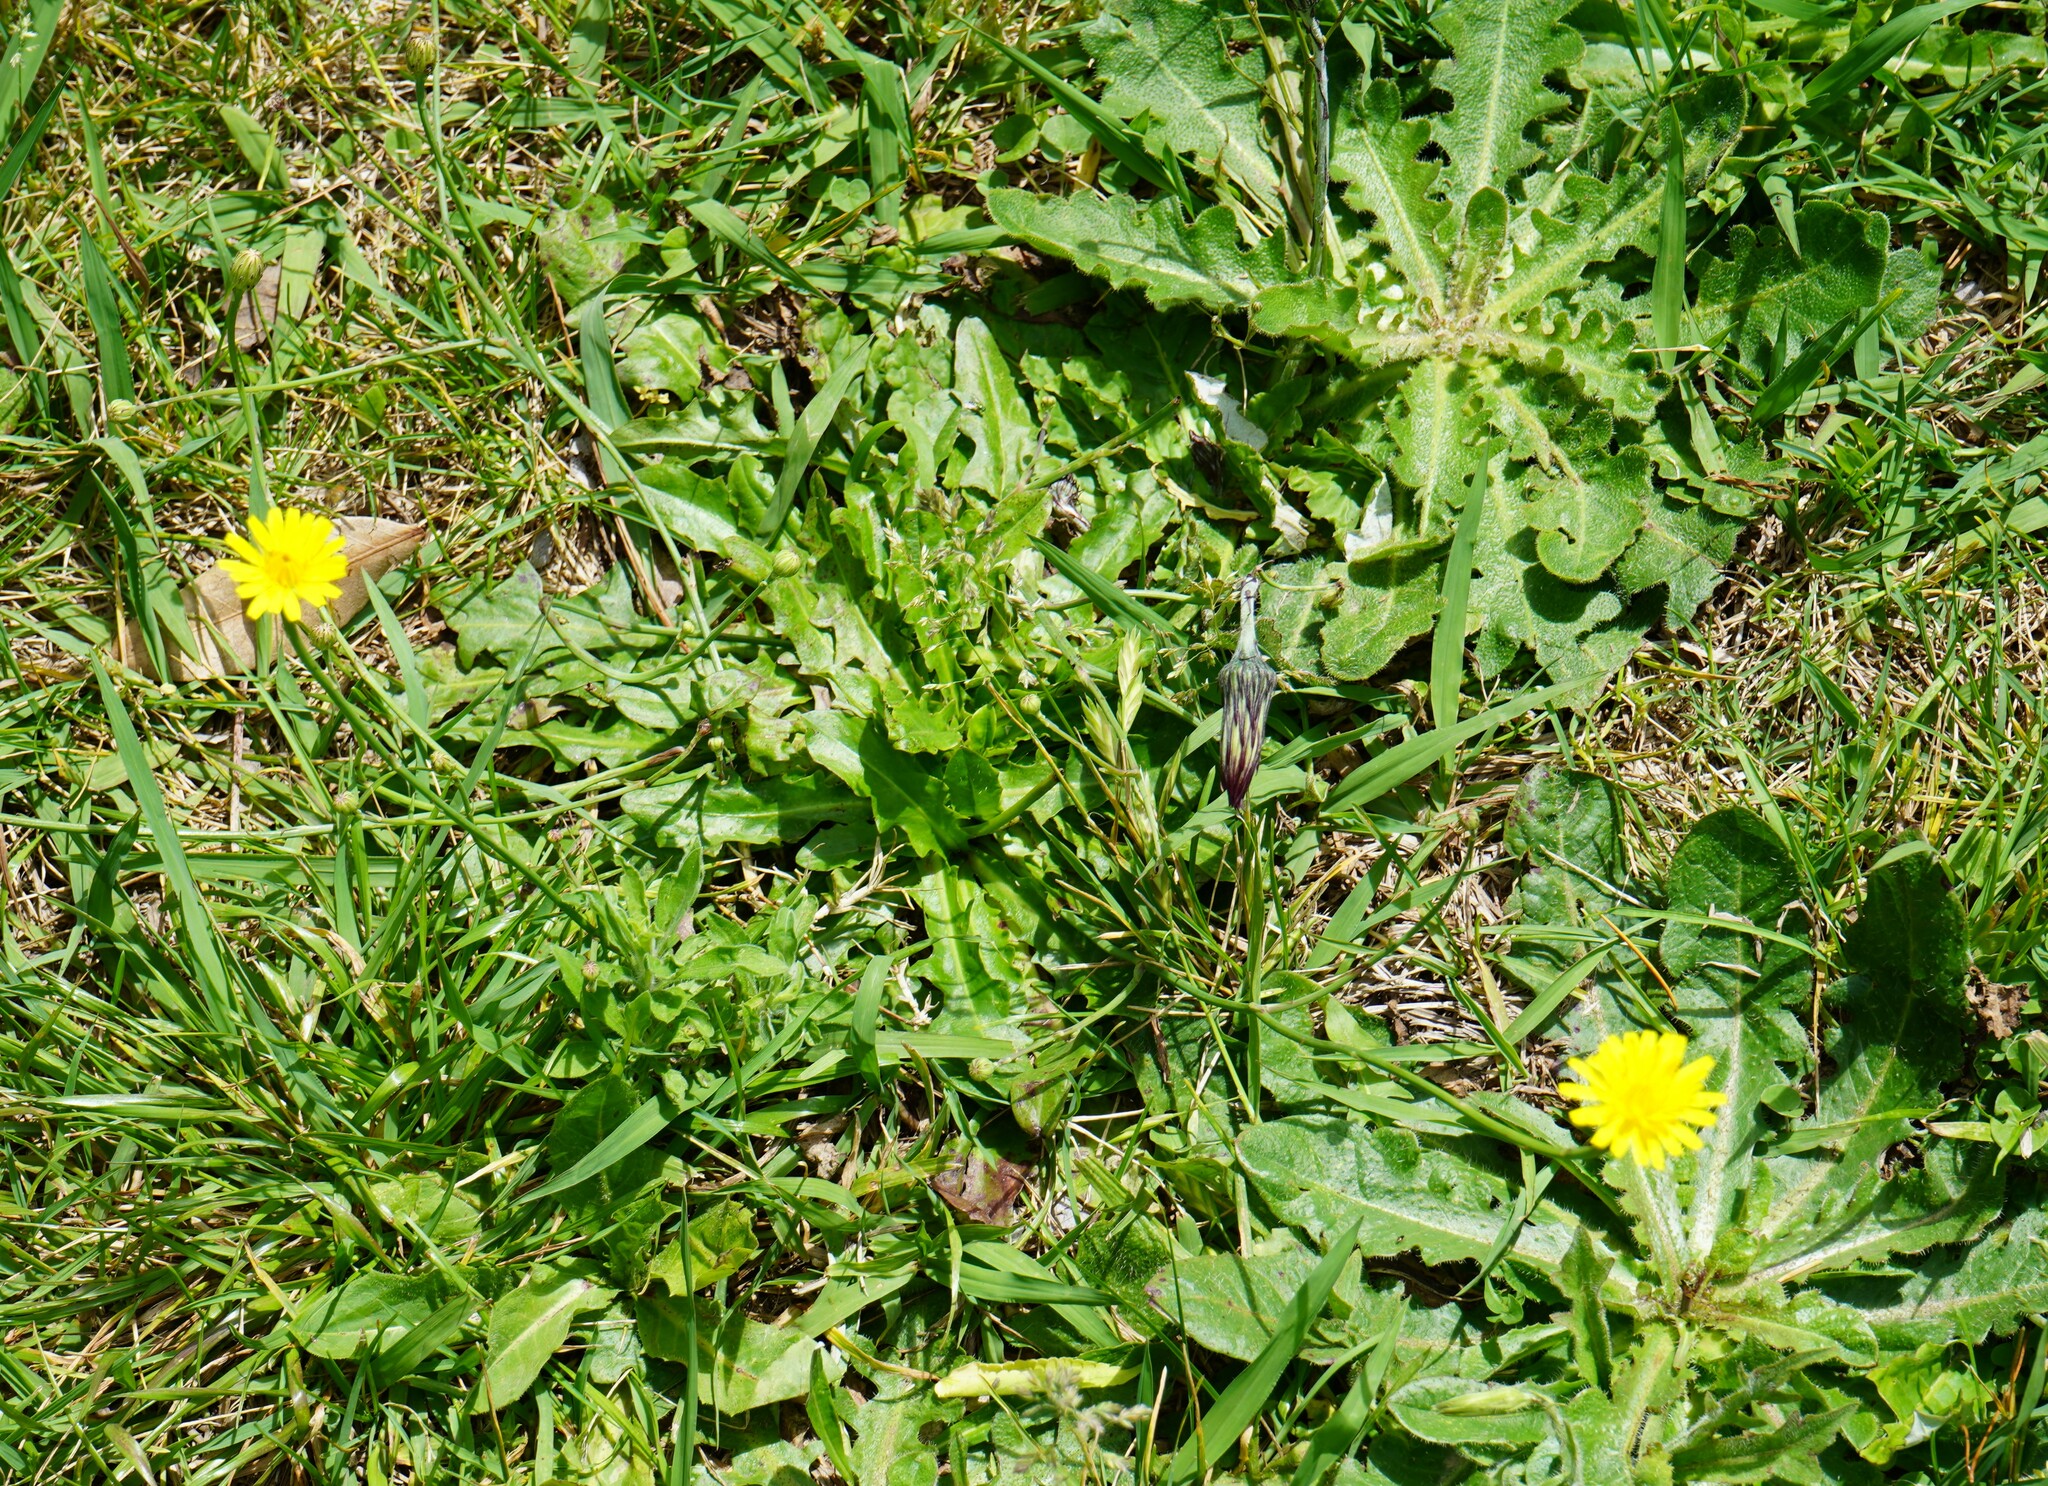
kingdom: Plantae
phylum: Tracheophyta
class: Magnoliopsida
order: Asterales
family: Asteraceae
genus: Hypochaeris
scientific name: Hypochaeris radicata
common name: Flatweed
